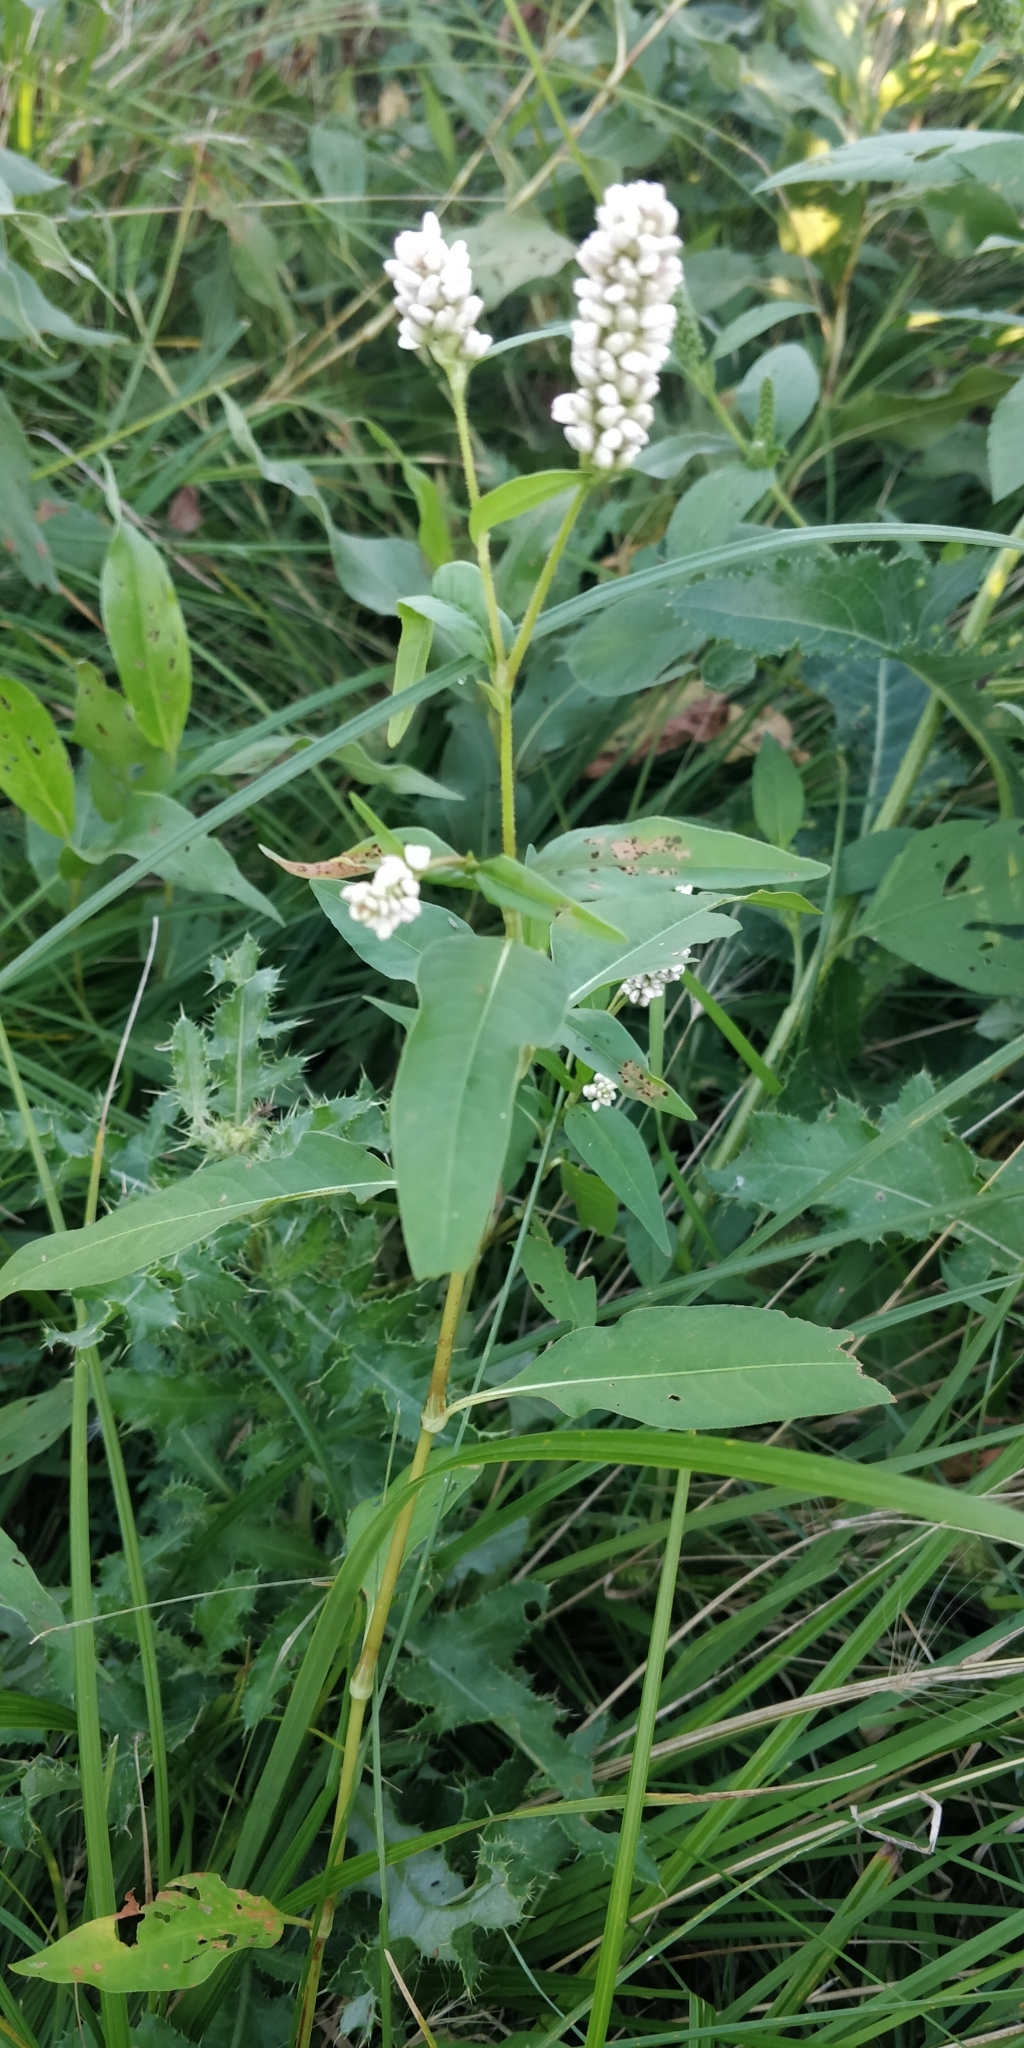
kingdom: Plantae
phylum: Tracheophyta
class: Magnoliopsida
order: Caryophyllales
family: Polygonaceae
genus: Persicaria
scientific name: Persicaria pensylvanica
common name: Pinkweed
